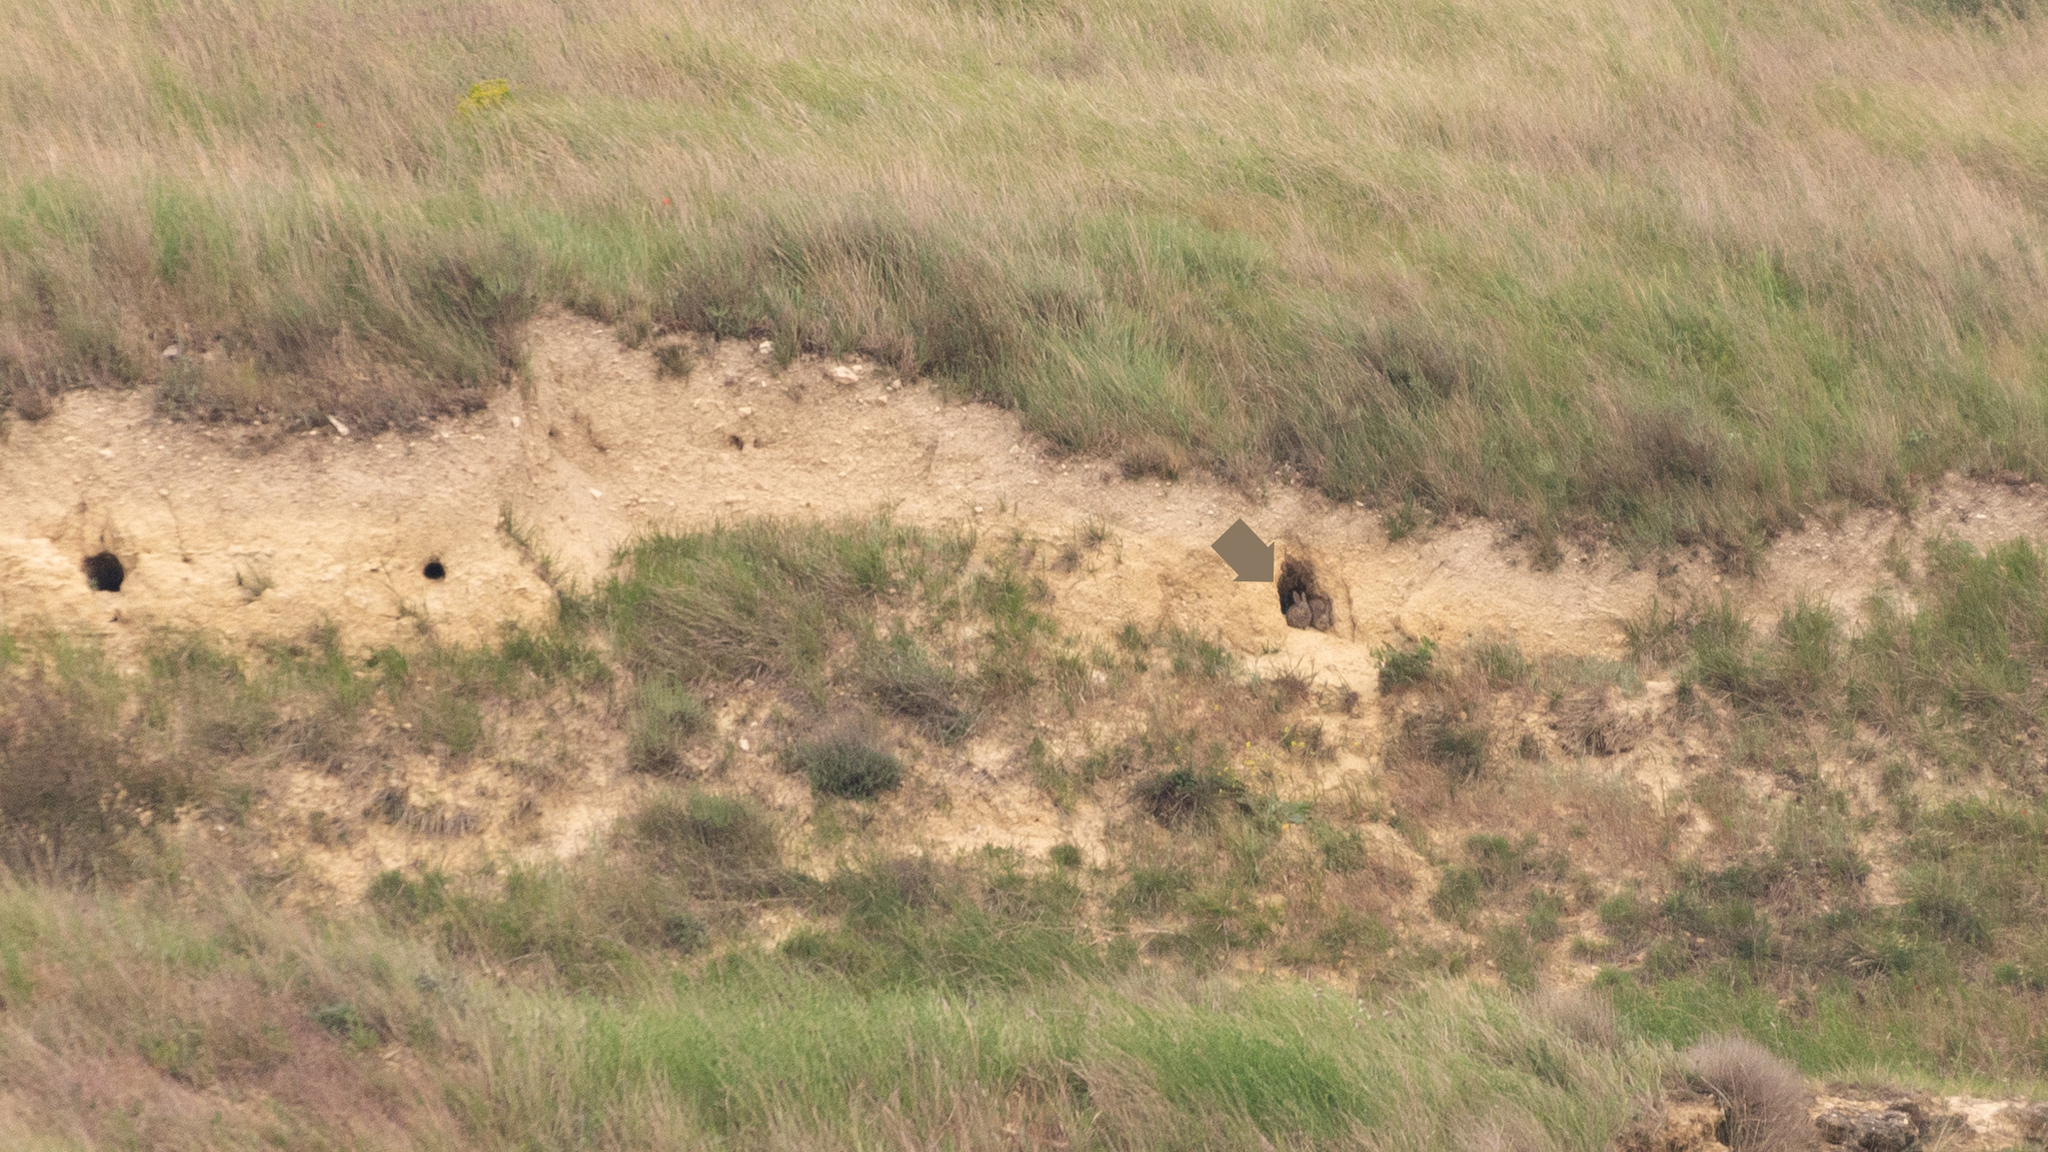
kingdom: Animalia
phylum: Chordata
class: Mammalia
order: Lagomorpha
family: Leporidae
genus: Oryctolagus
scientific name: Oryctolagus cuniculus
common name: European rabbit
